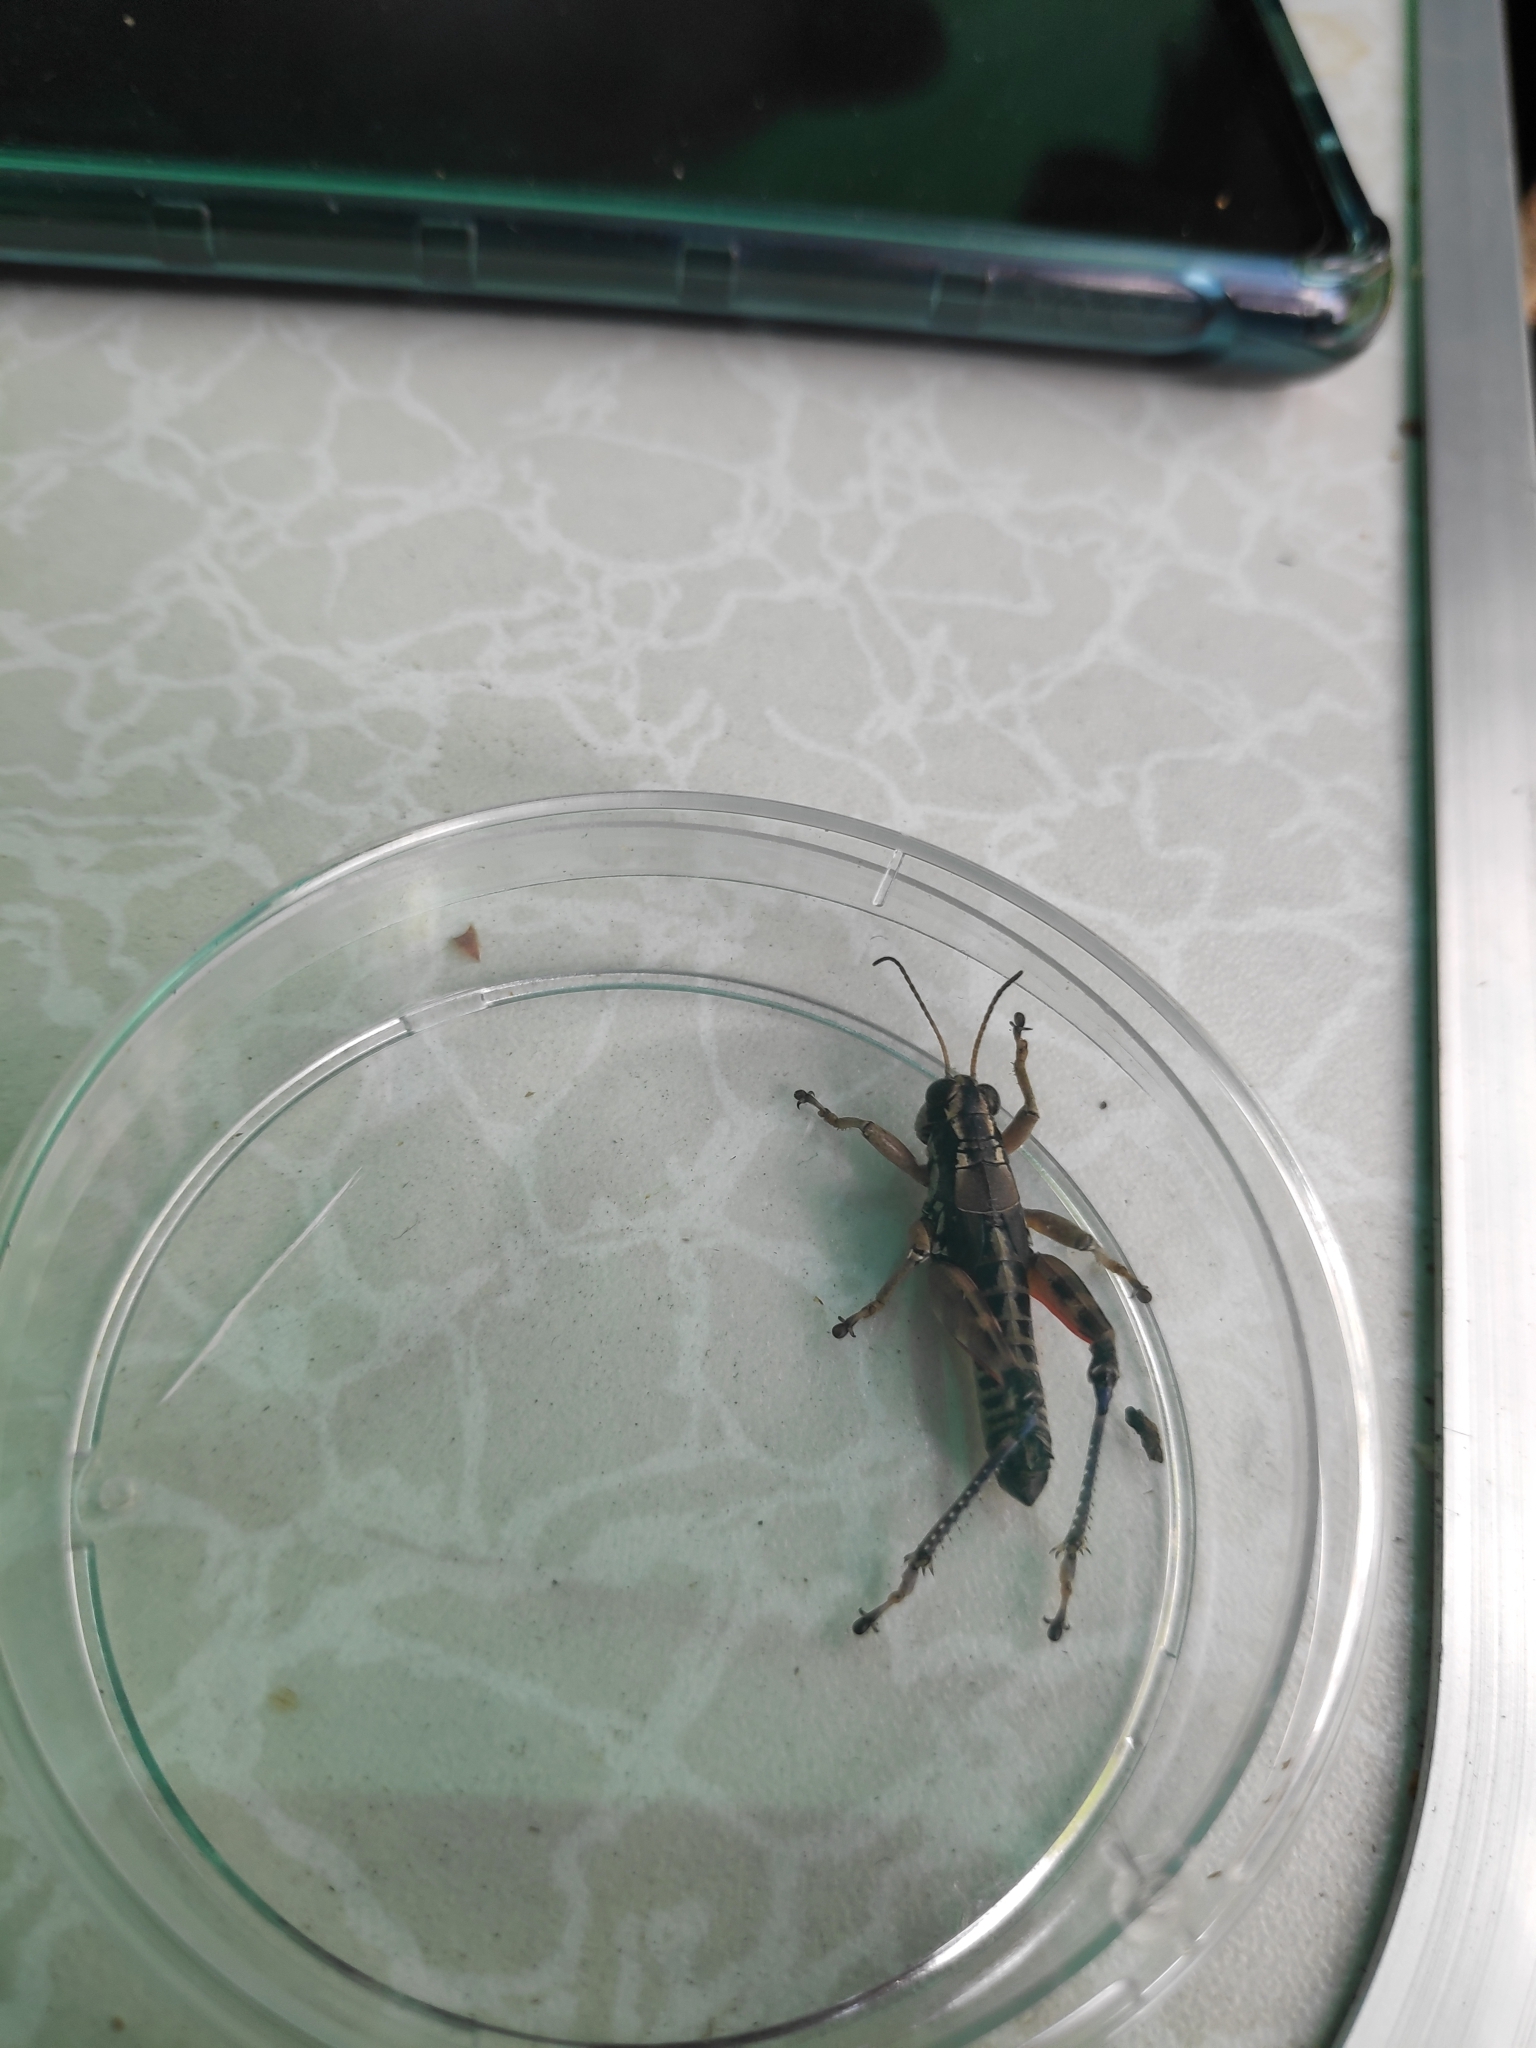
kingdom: Animalia
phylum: Arthropoda
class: Insecta
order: Orthoptera
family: Acrididae
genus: Podisma
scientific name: Podisma pedestris
